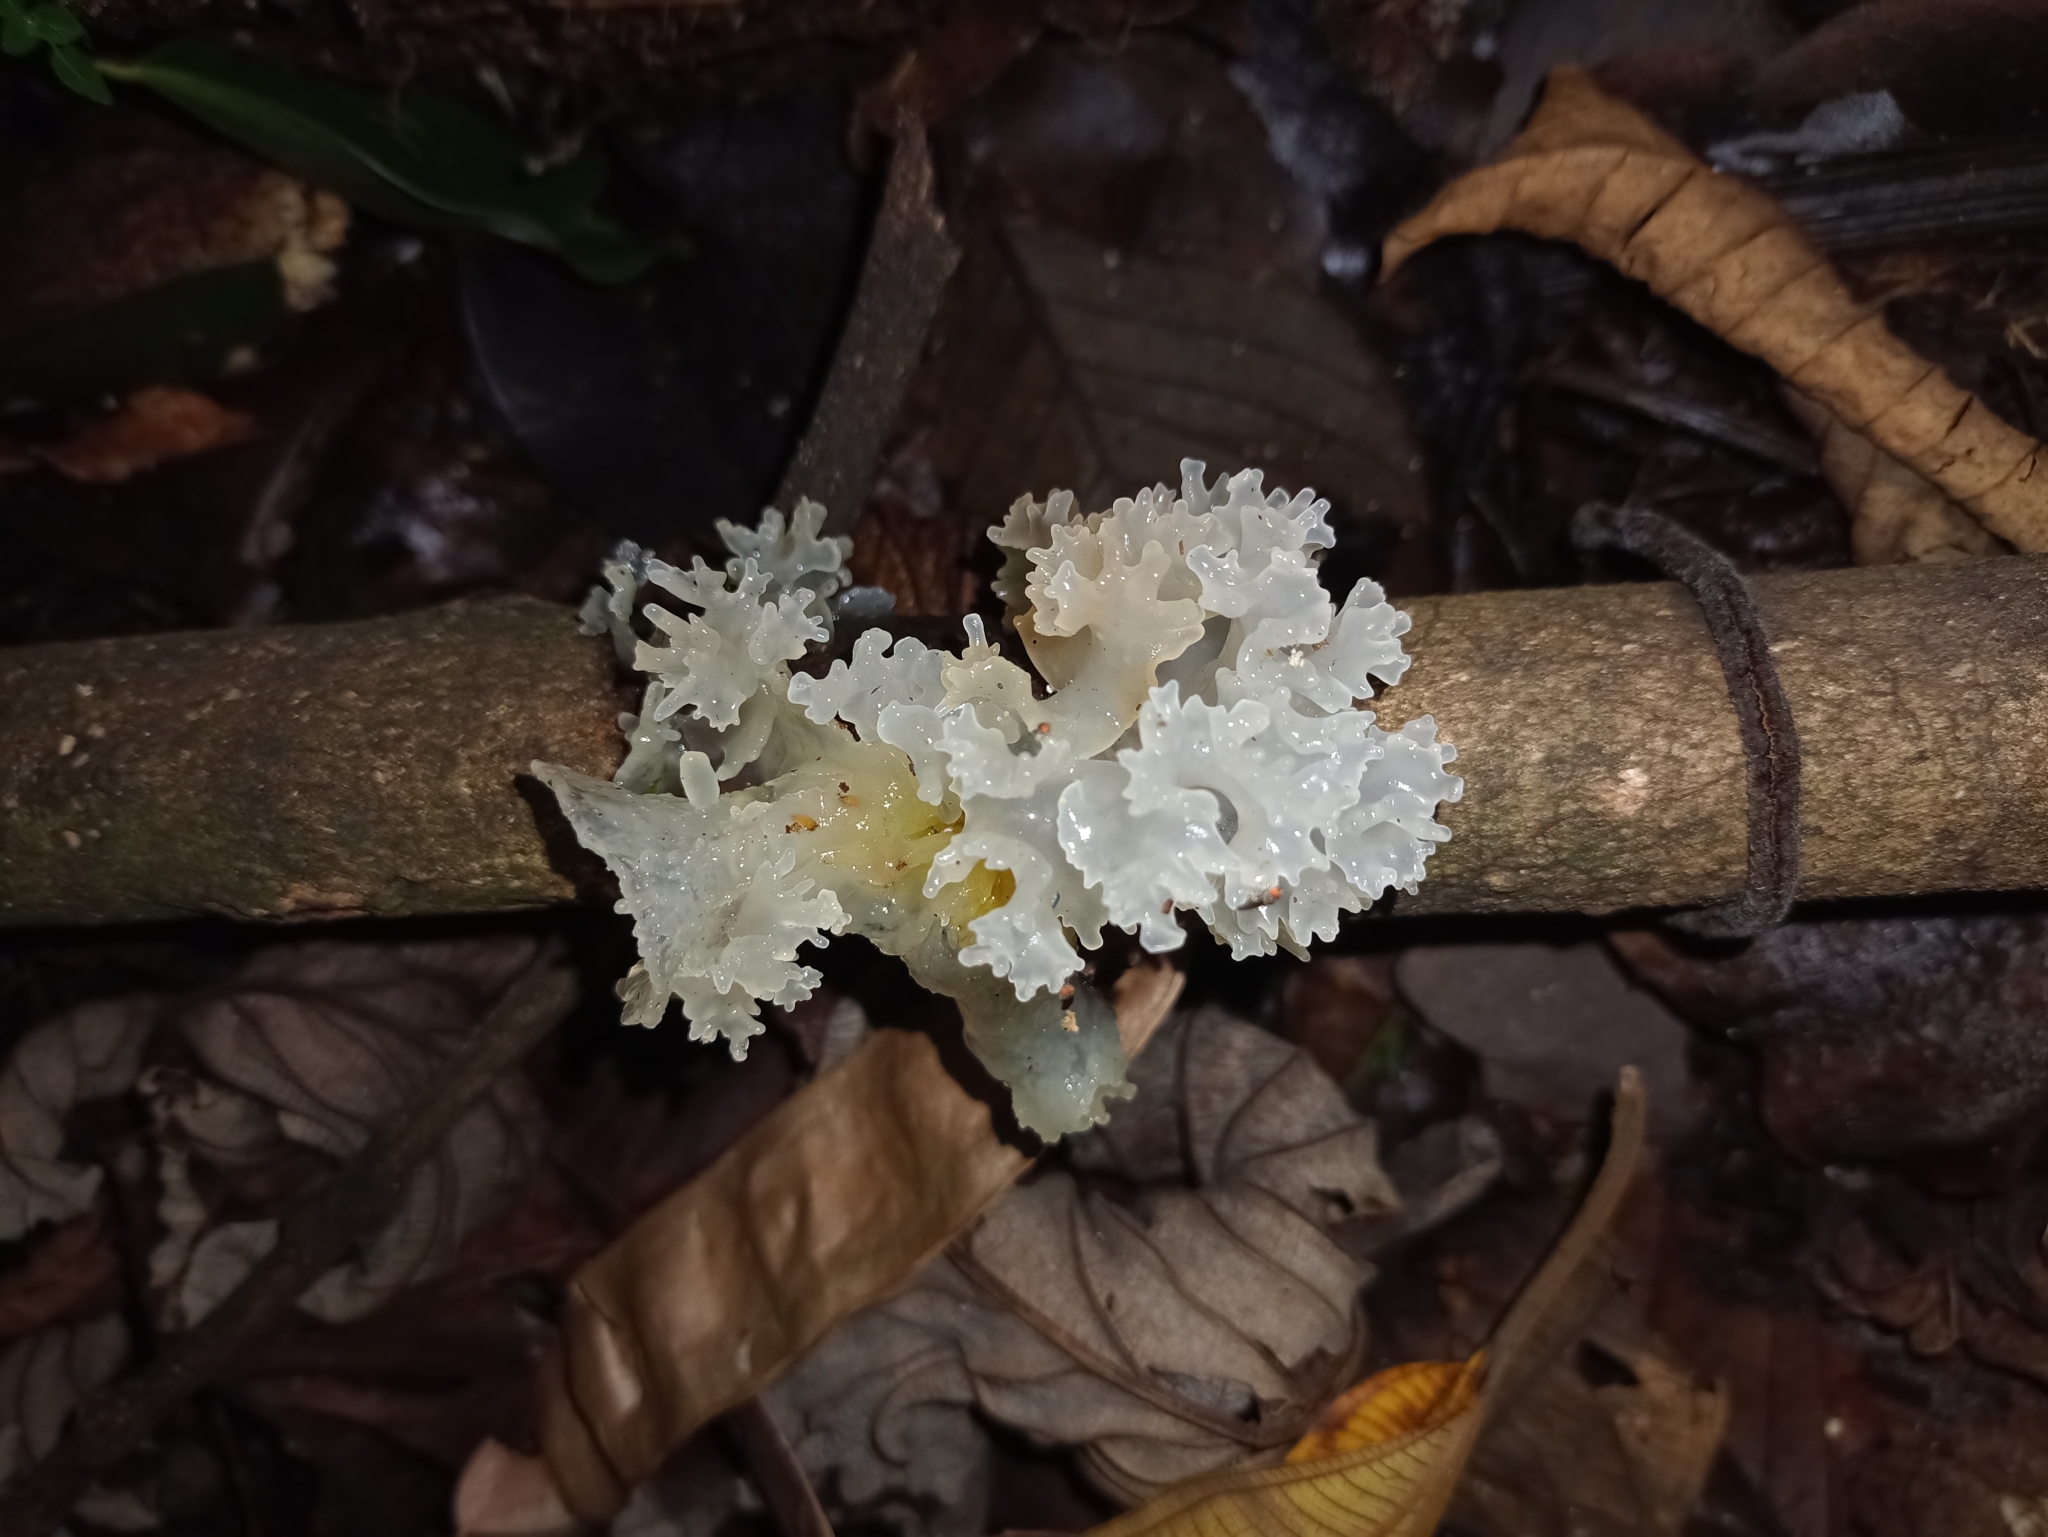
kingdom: Fungi
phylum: Basidiomycota
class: Tremellomycetes
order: Tremellales
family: Tremellaceae
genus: Tremella
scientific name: Tremella fuciformis
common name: Snow fungus
